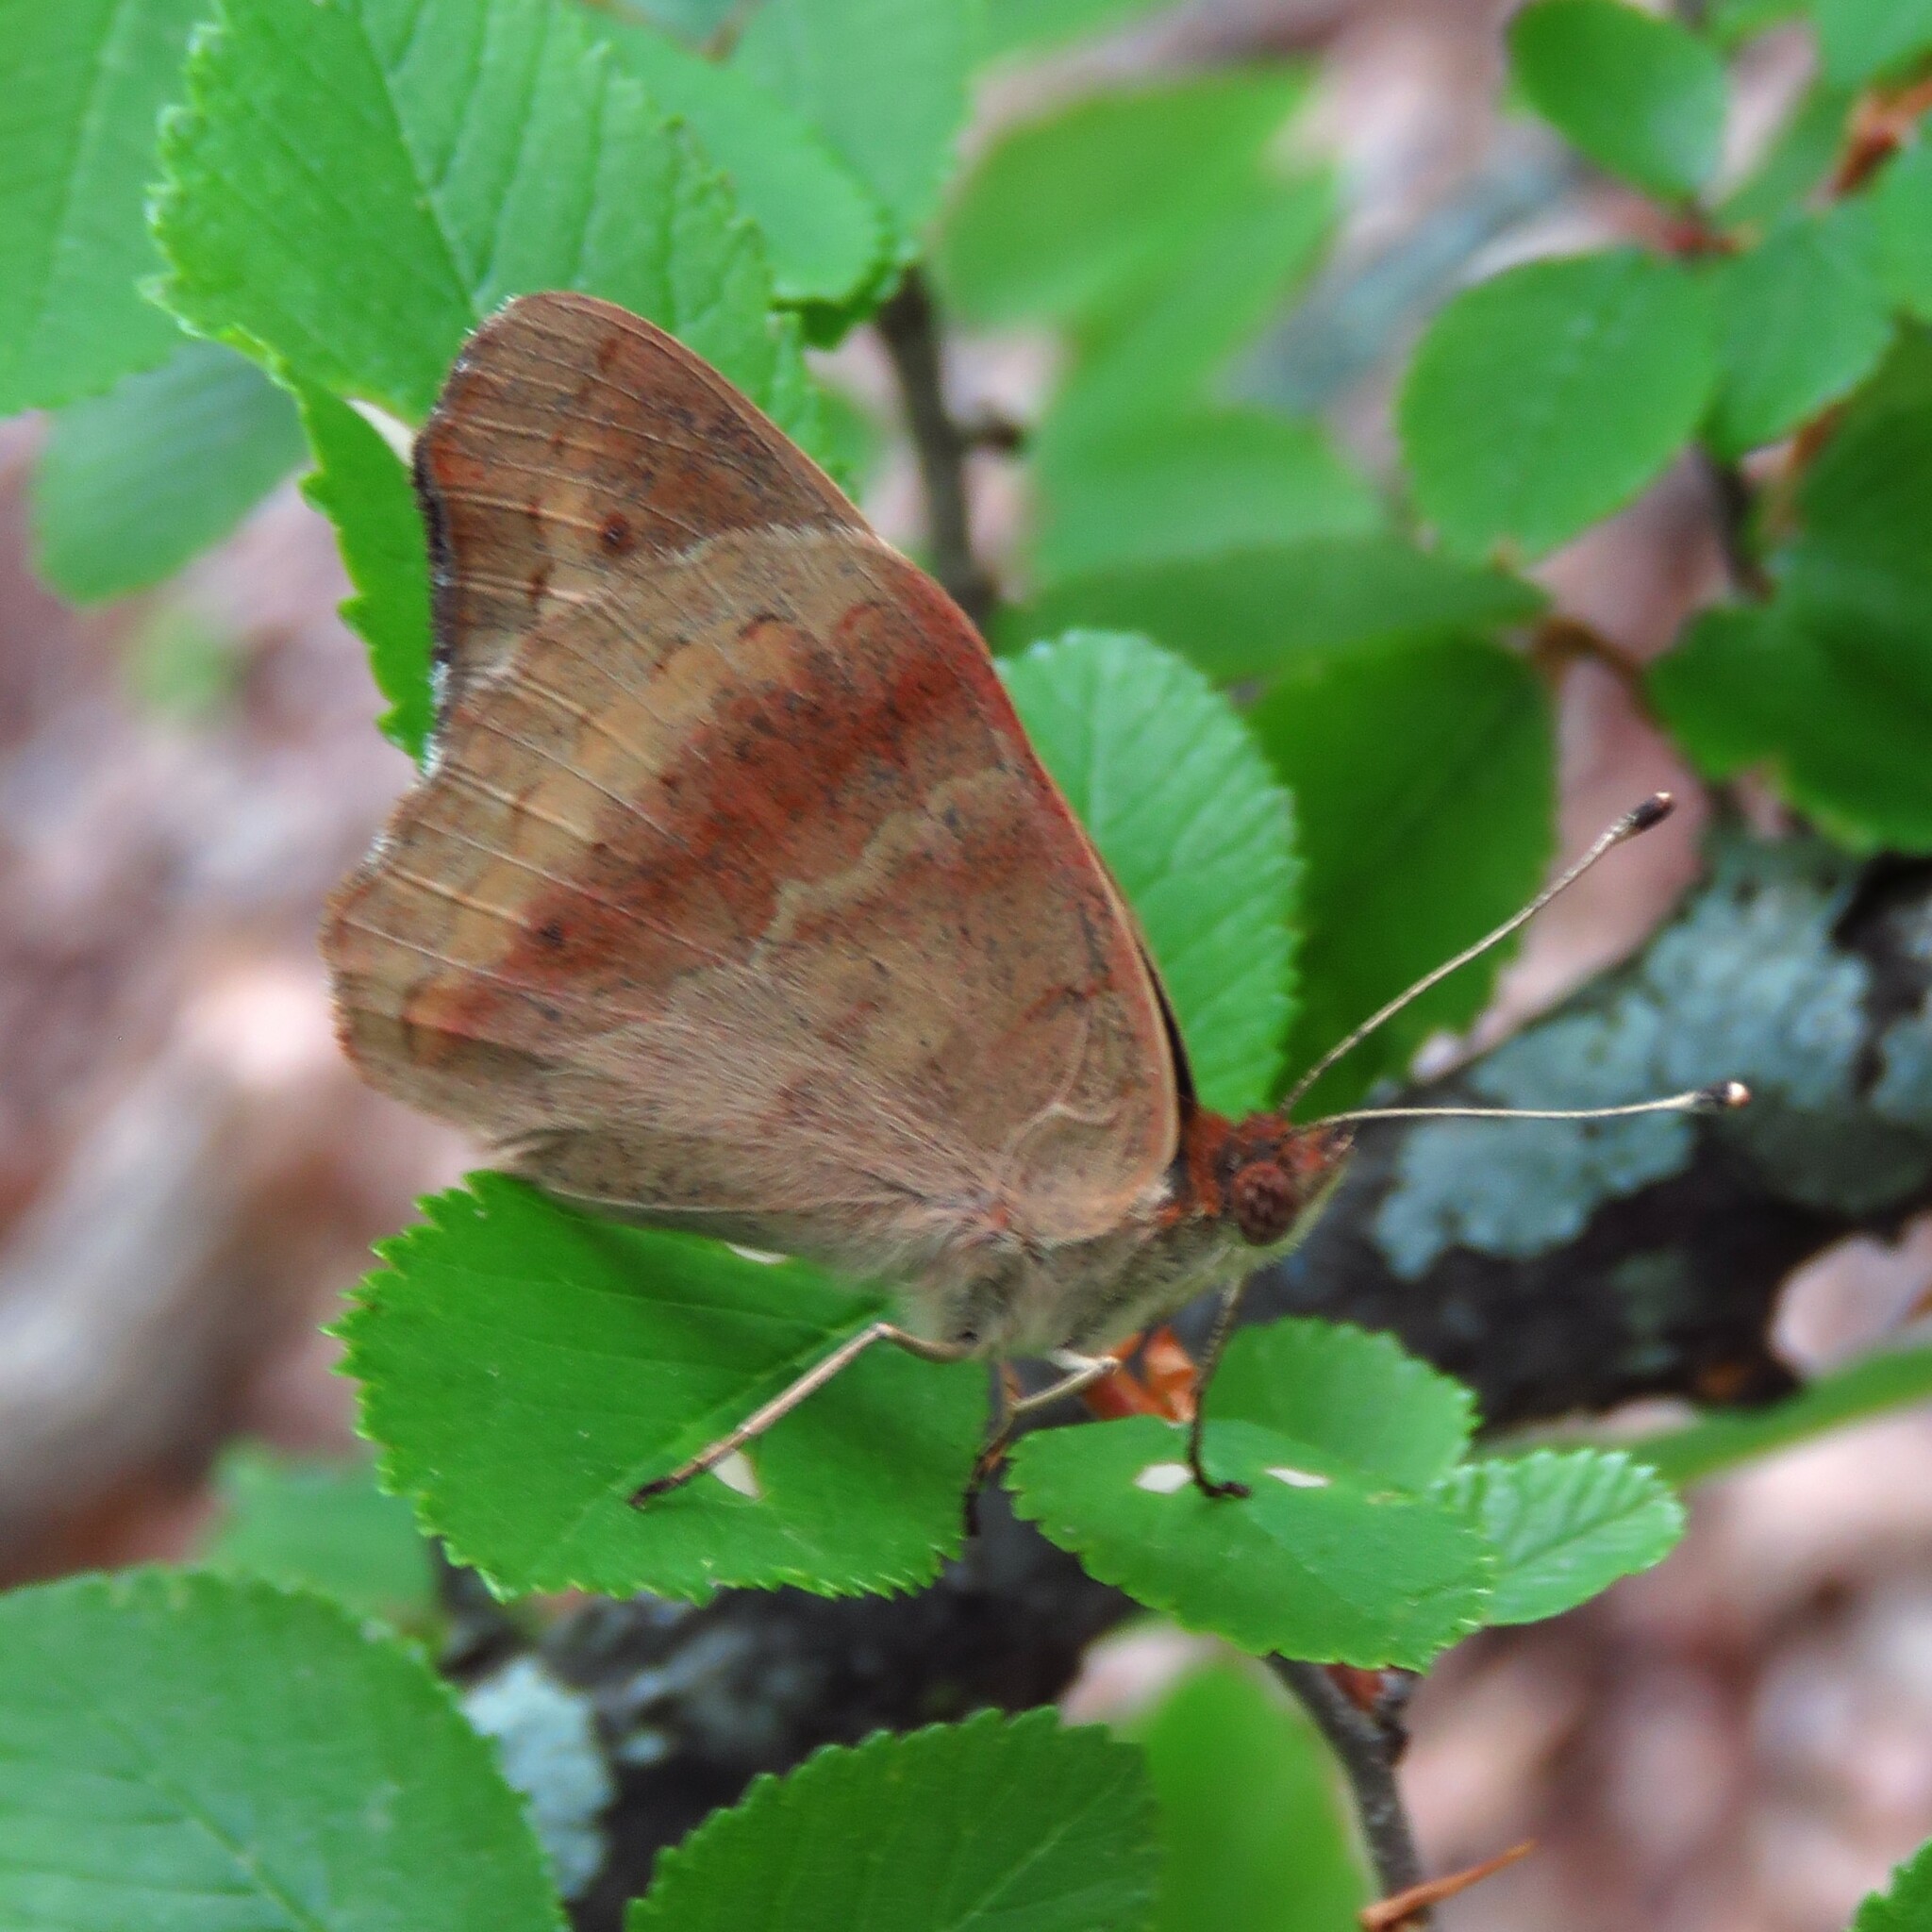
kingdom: Animalia
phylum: Arthropoda
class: Insecta
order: Lepidoptera
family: Nymphalidae
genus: Junonia
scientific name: Junonia coenia
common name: Common buckeye
